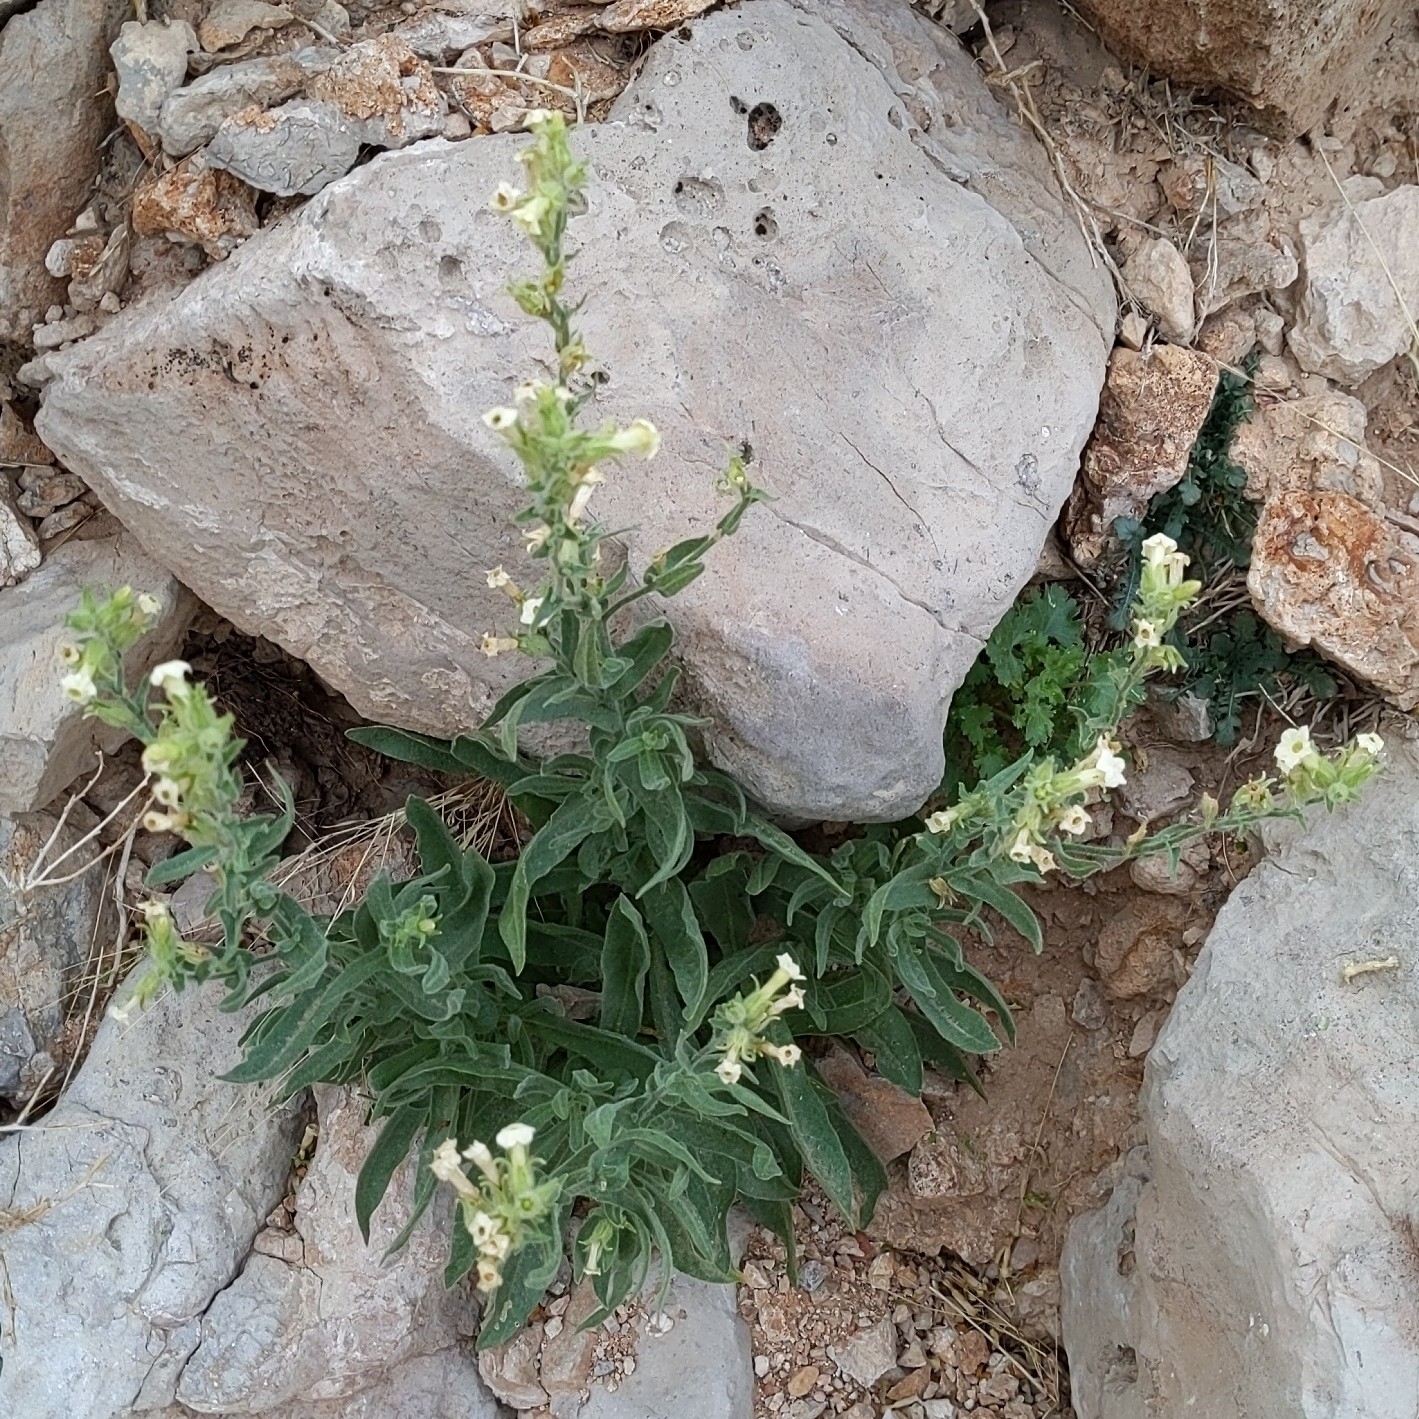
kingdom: Plantae
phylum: Tracheophyta
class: Magnoliopsida
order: Solanales
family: Solanaceae
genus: Nicotiana
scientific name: Nicotiana obtusifolia
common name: Desert tobacco
